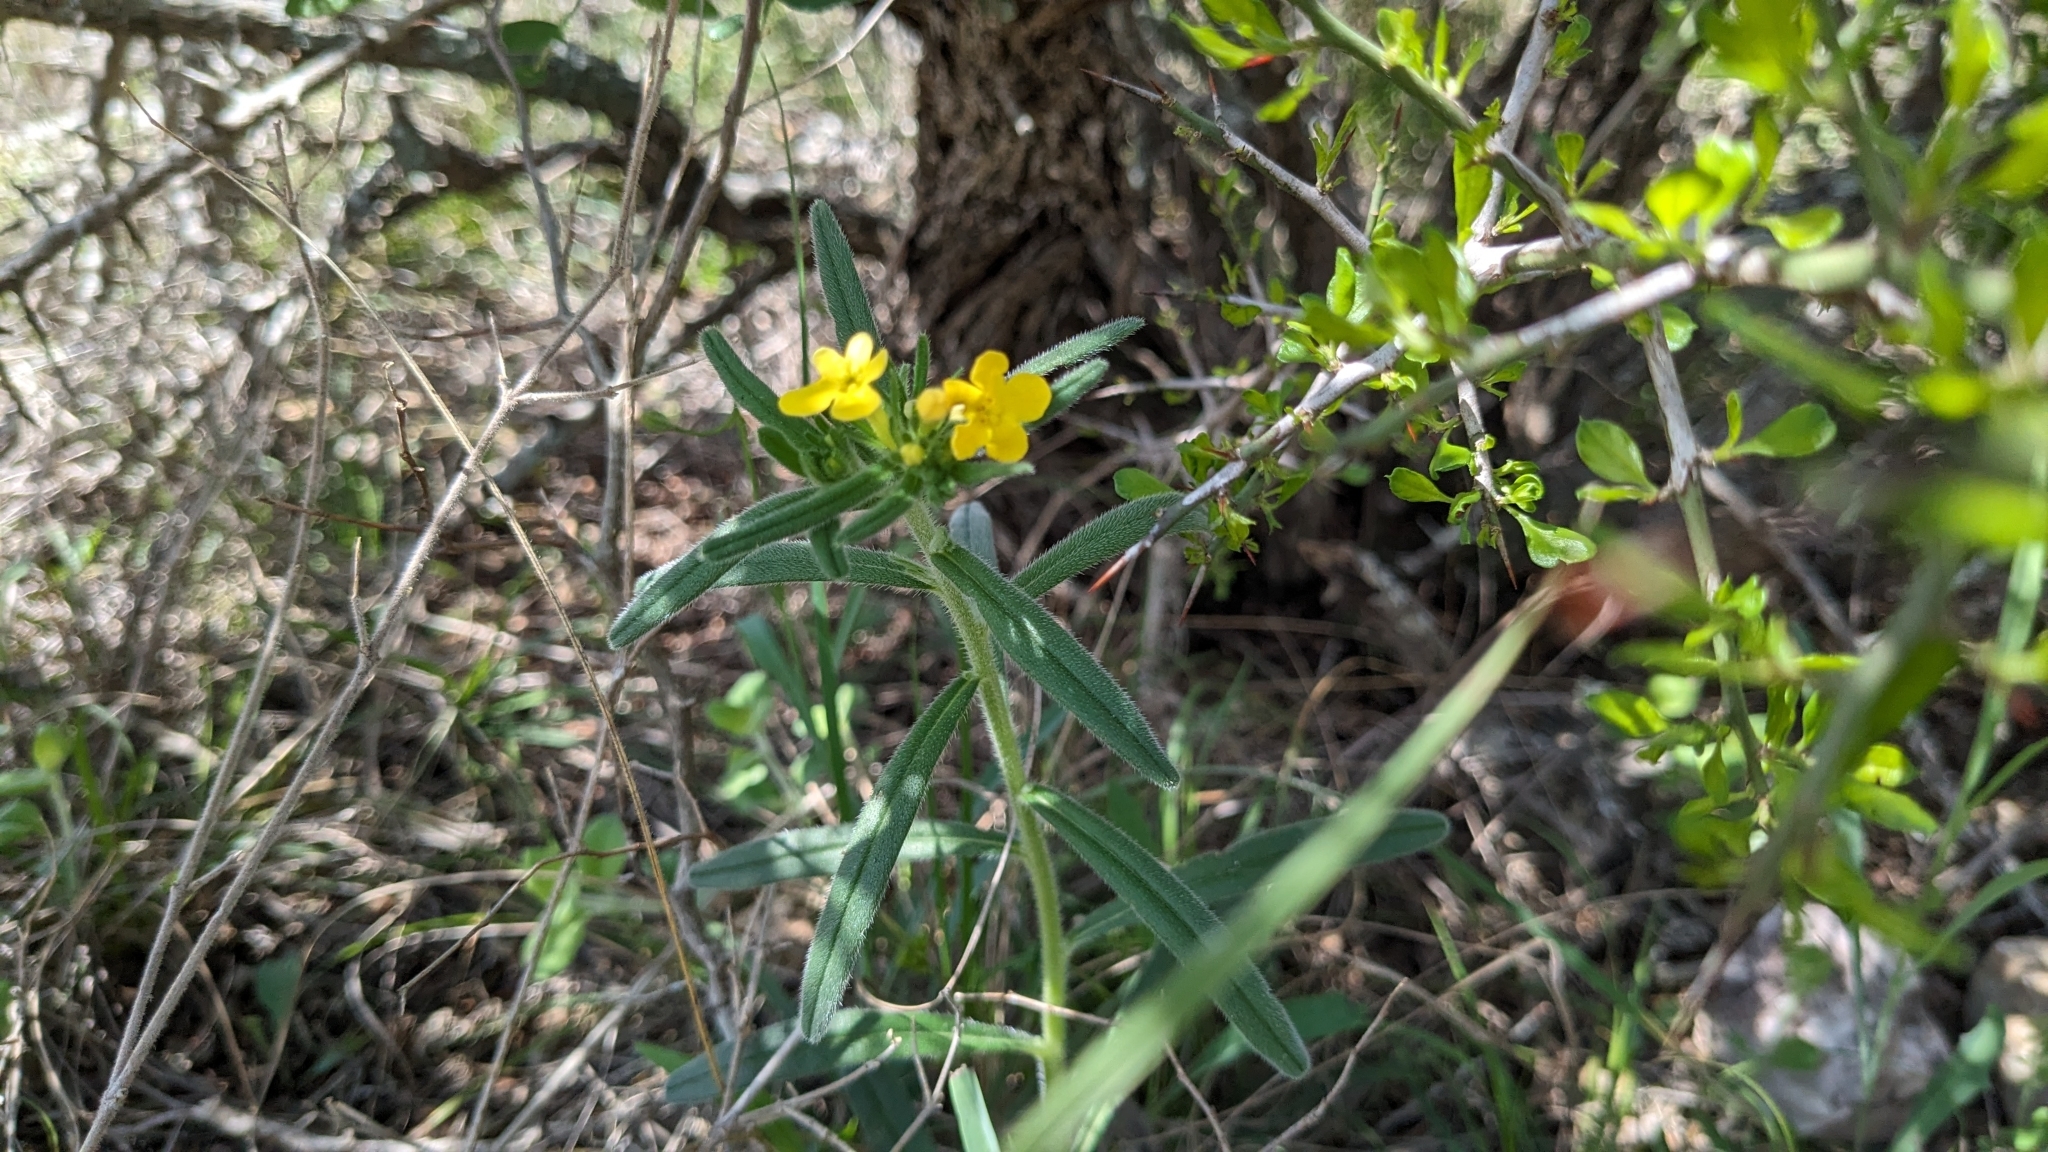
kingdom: Plantae
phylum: Tracheophyta
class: Magnoliopsida
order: Boraginales
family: Boraginaceae
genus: Lithospermum
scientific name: Lithospermum mirabile
